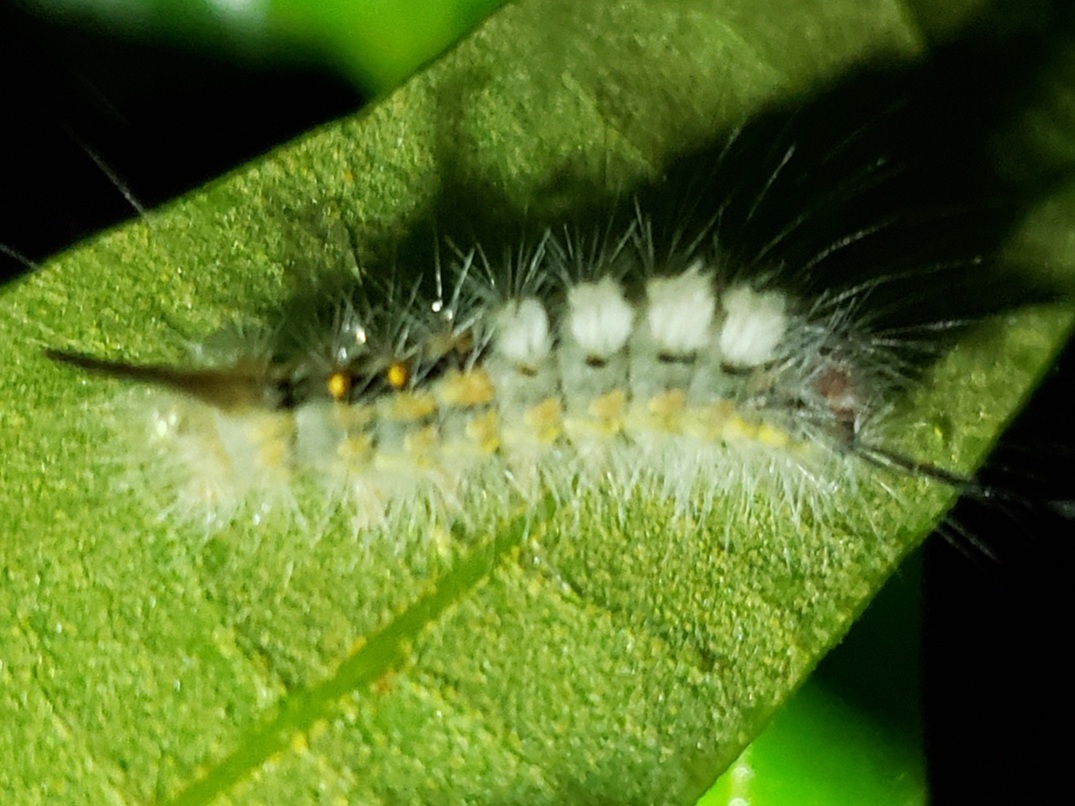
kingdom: Animalia
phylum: Arthropoda
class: Insecta
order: Lepidoptera
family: Erebidae
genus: Orgyia
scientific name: Orgyia detrita
